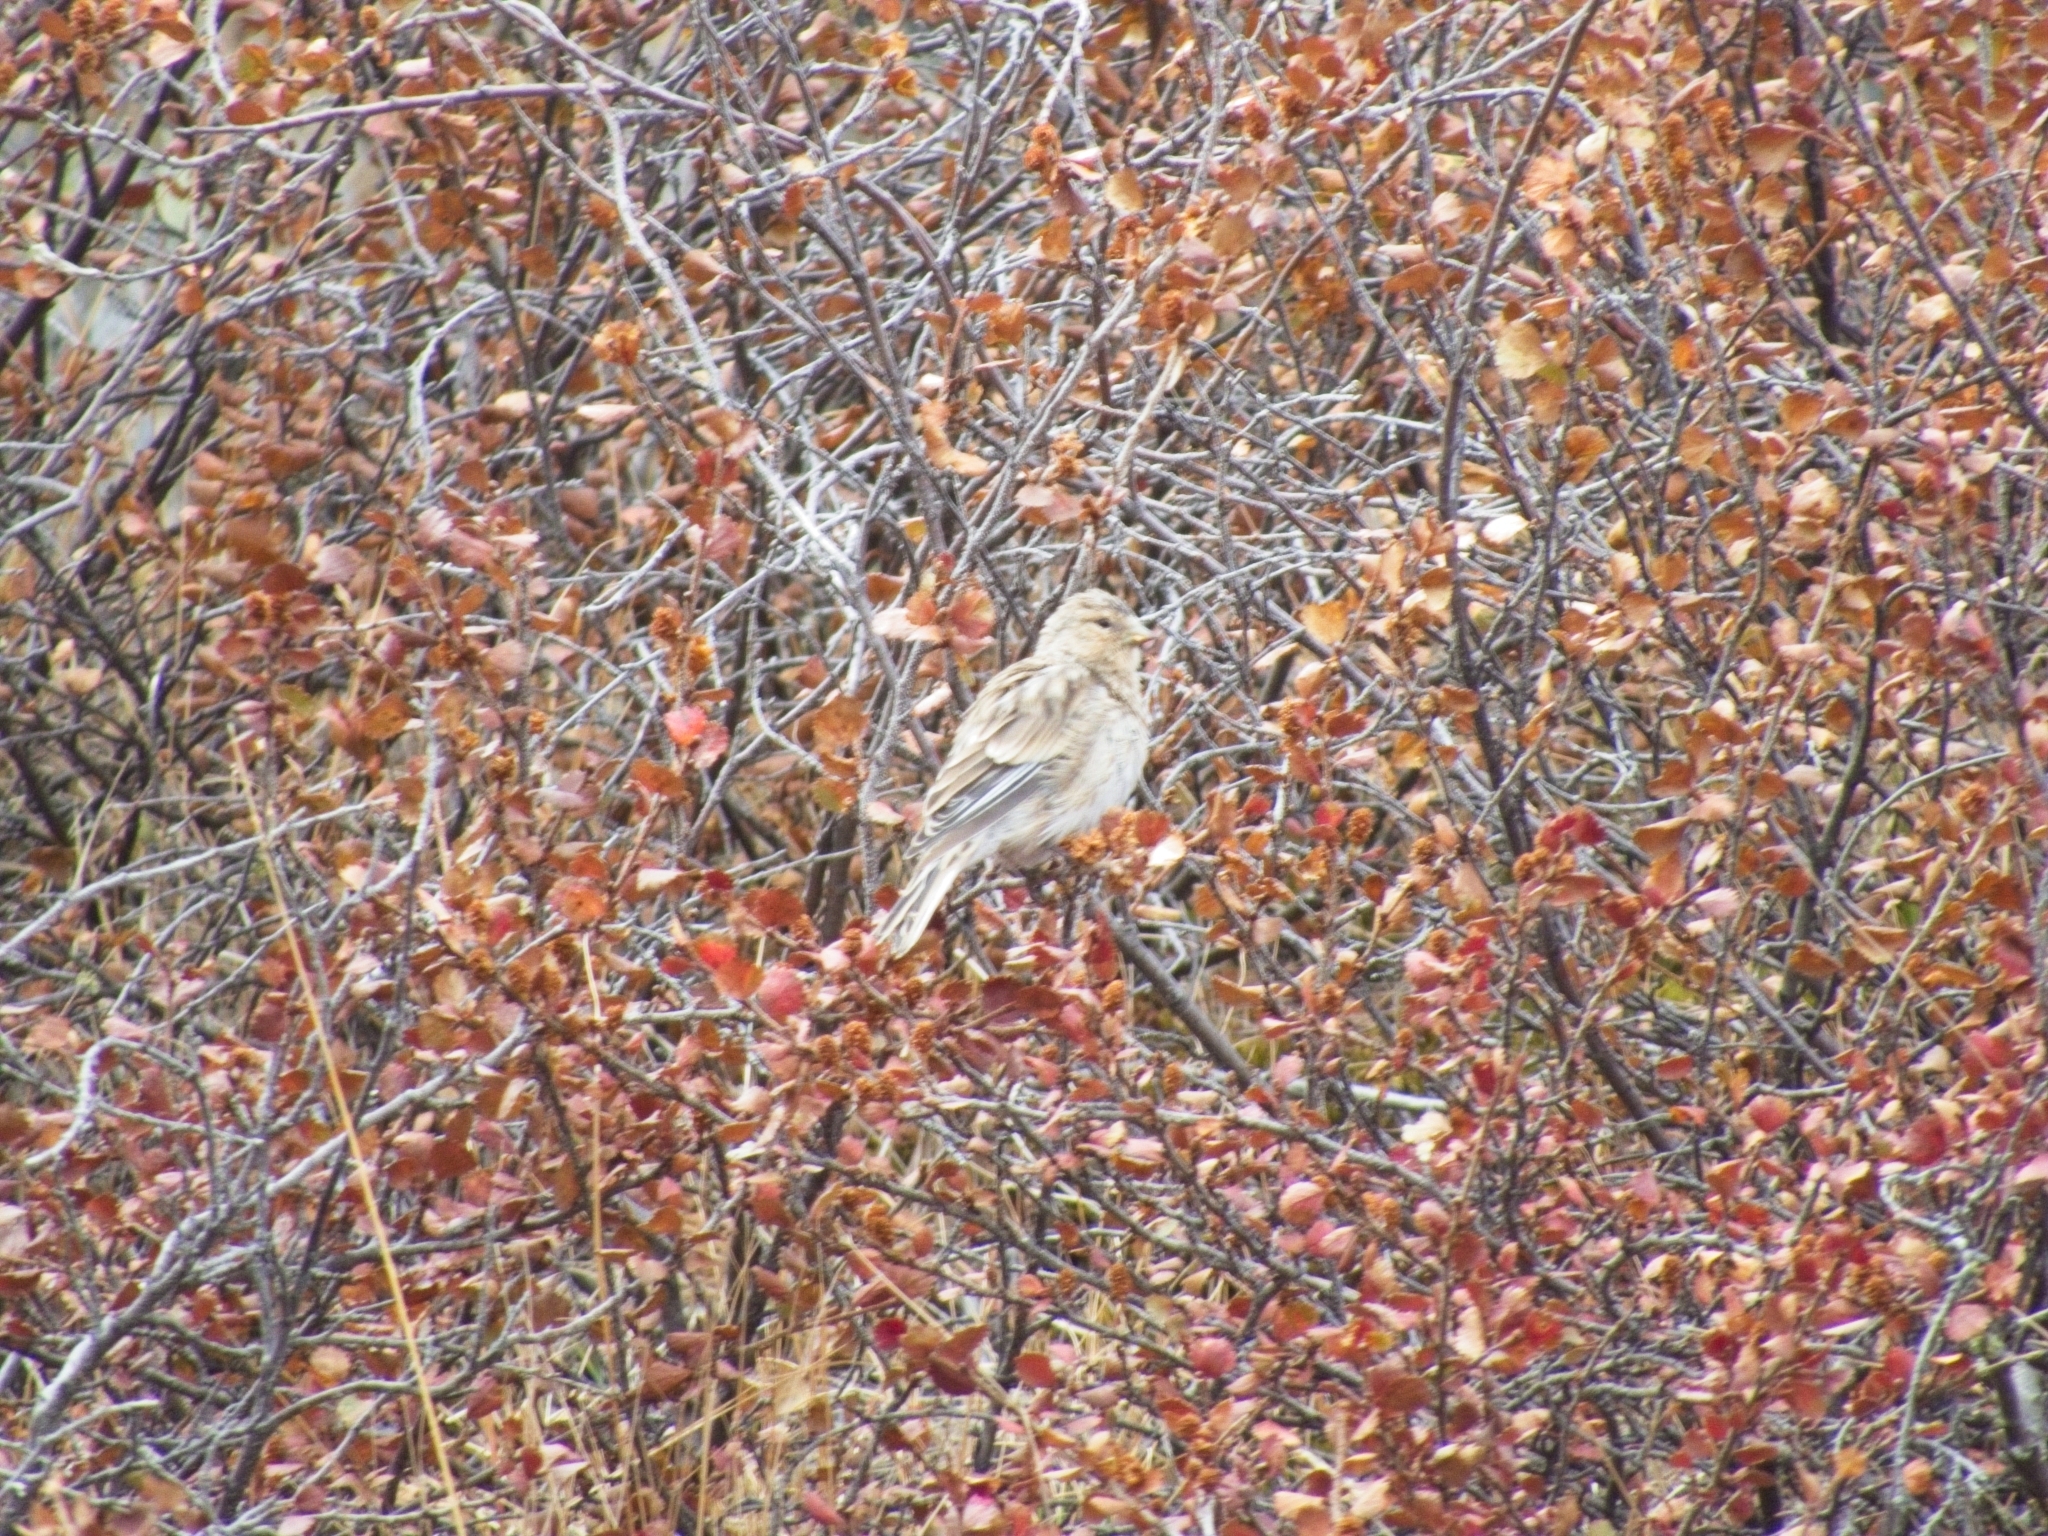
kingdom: Animalia
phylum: Chordata
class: Aves
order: Passeriformes
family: Fringillidae
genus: Linaria
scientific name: Linaria flavirostris
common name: Twite
